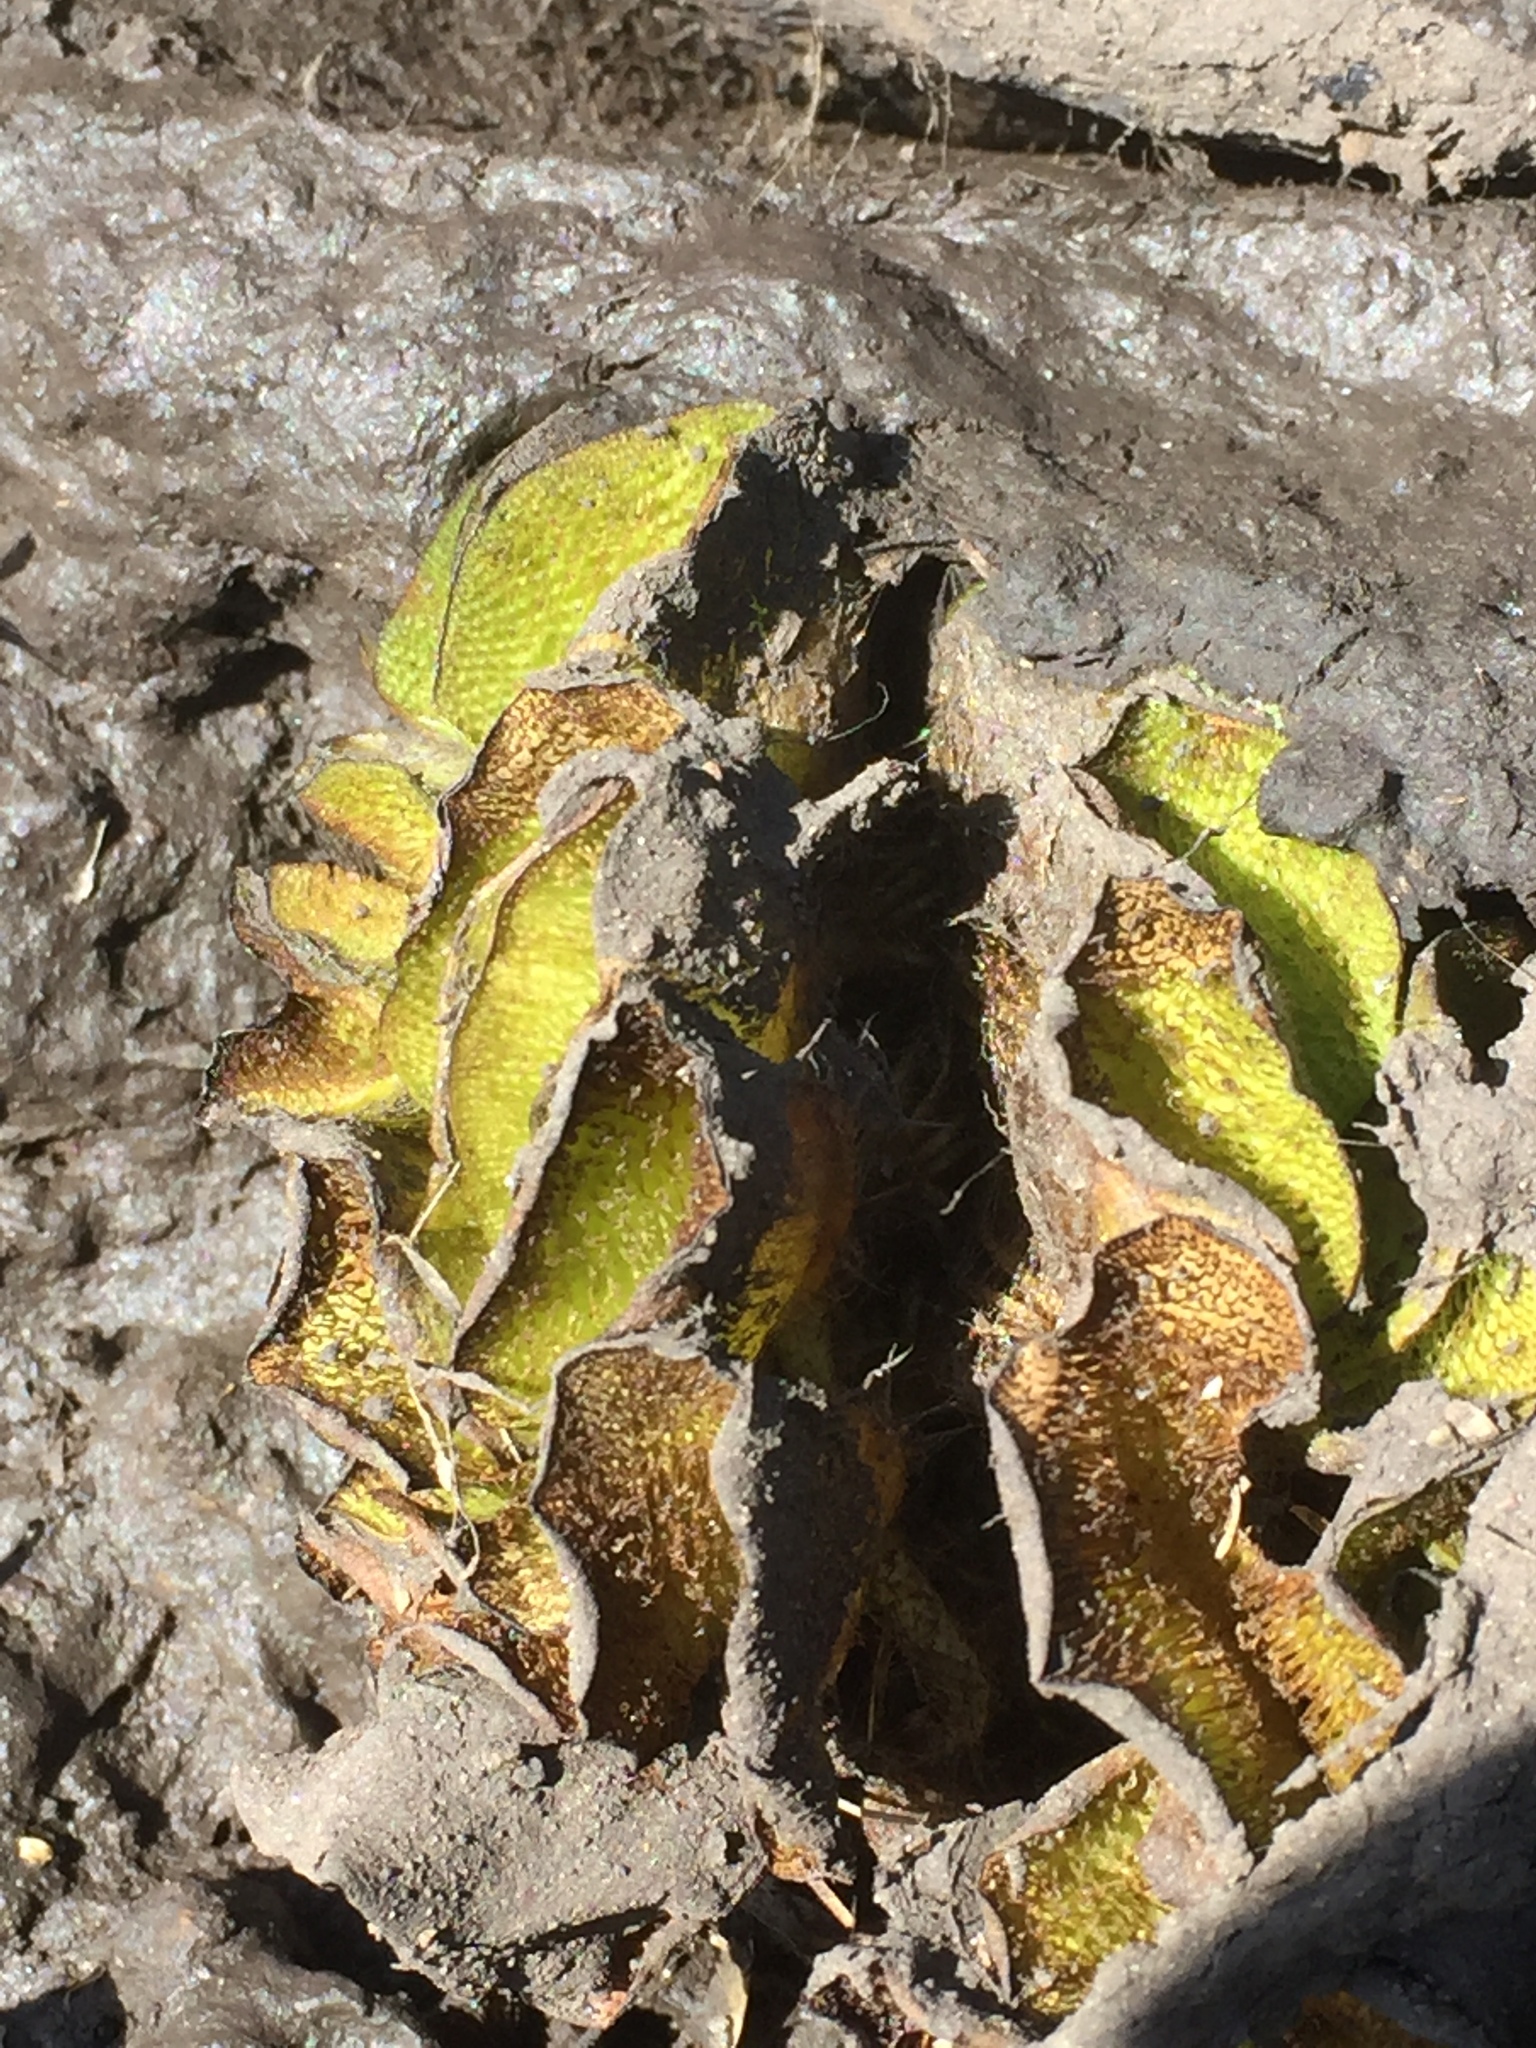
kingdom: Plantae
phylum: Tracheophyta
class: Polypodiopsida
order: Salviniales
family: Salviniaceae
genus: Salvinia
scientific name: Salvinia molesta
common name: Kariba weed
